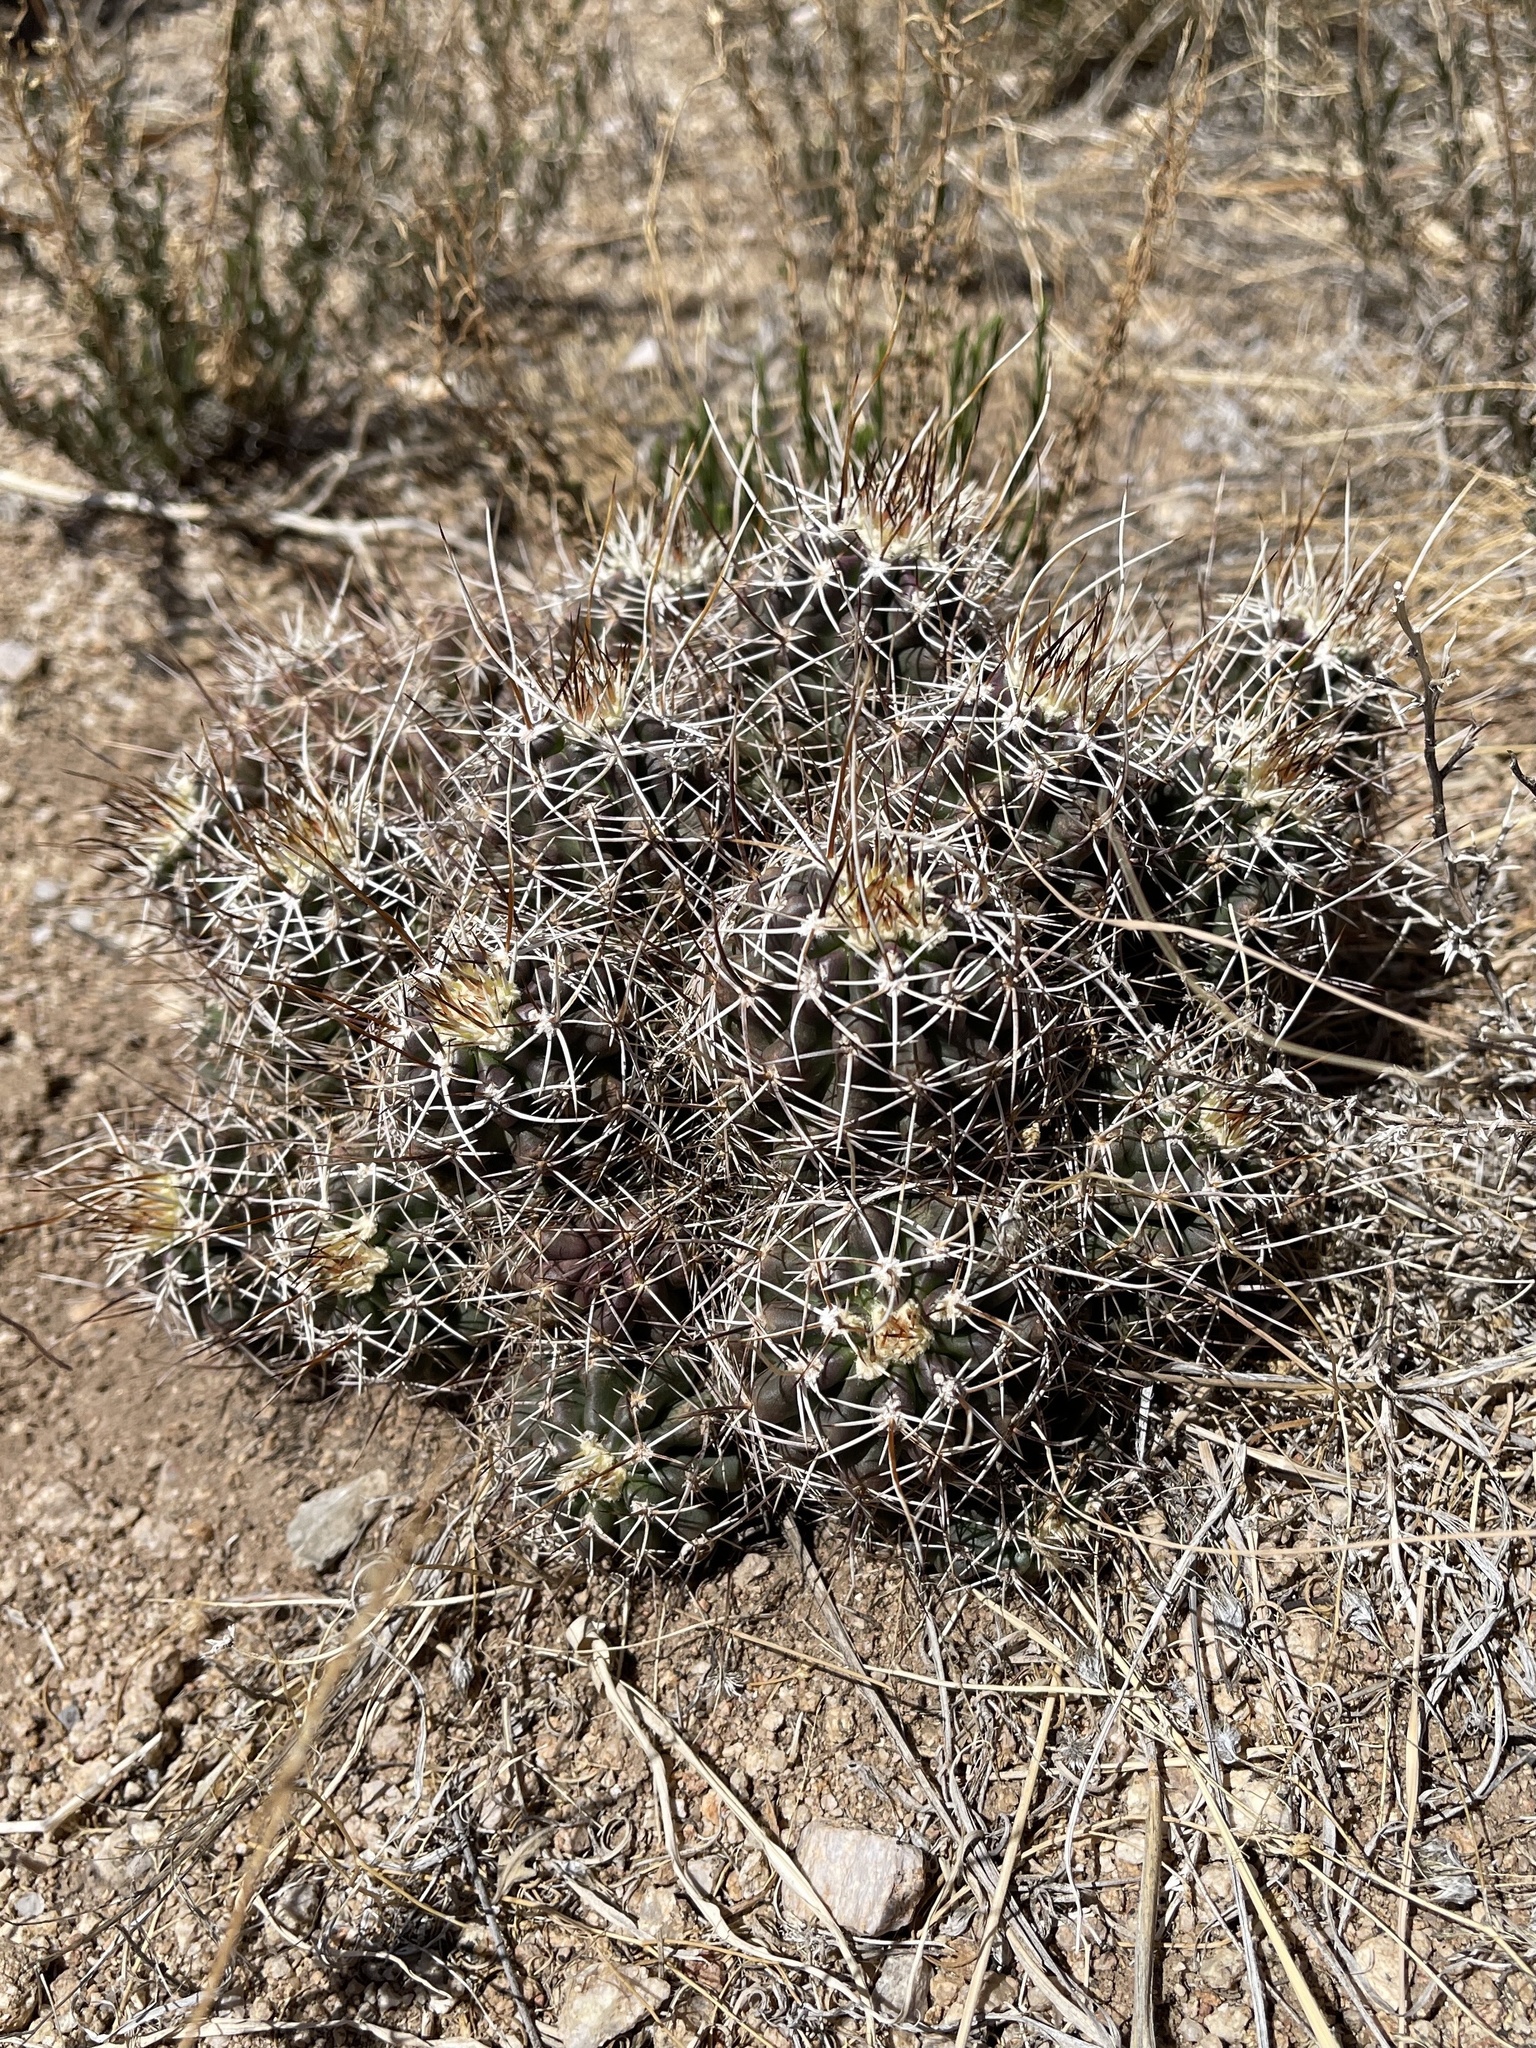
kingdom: Plantae
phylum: Tracheophyta
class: Magnoliopsida
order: Caryophyllales
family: Cactaceae
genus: Echinocereus
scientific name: Echinocereus fendleri
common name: Fendler's hedgehog cactus
